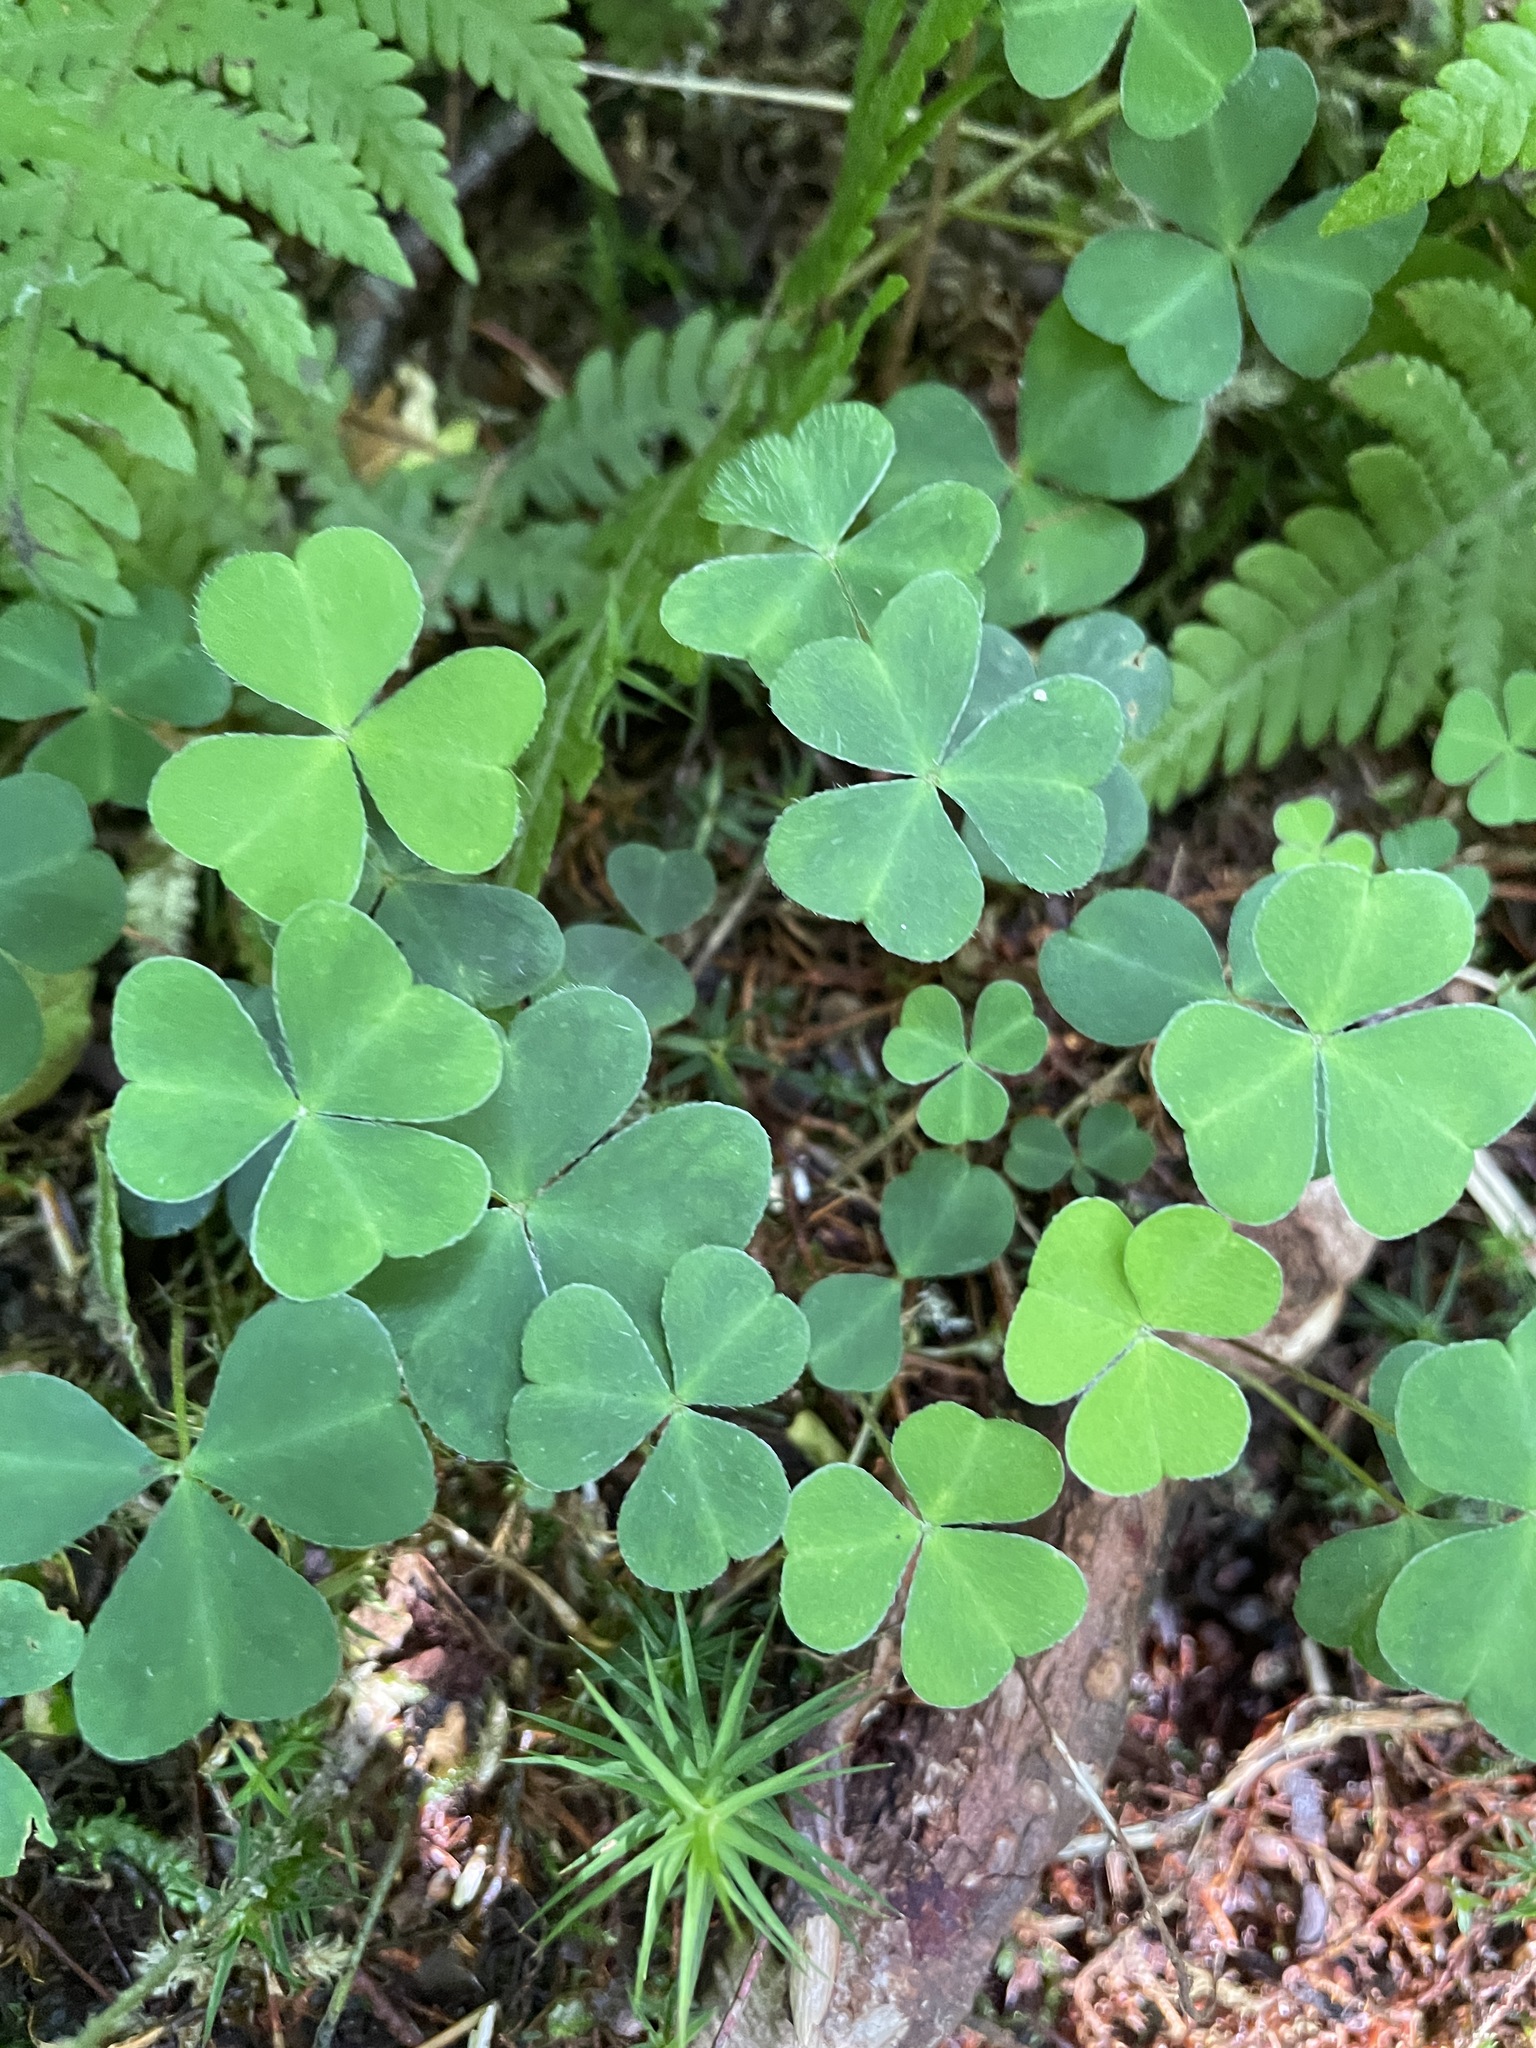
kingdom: Plantae
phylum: Tracheophyta
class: Magnoliopsida
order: Oxalidales
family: Oxalidaceae
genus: Oxalis
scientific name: Oxalis acetosella
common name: Wood-sorrel
